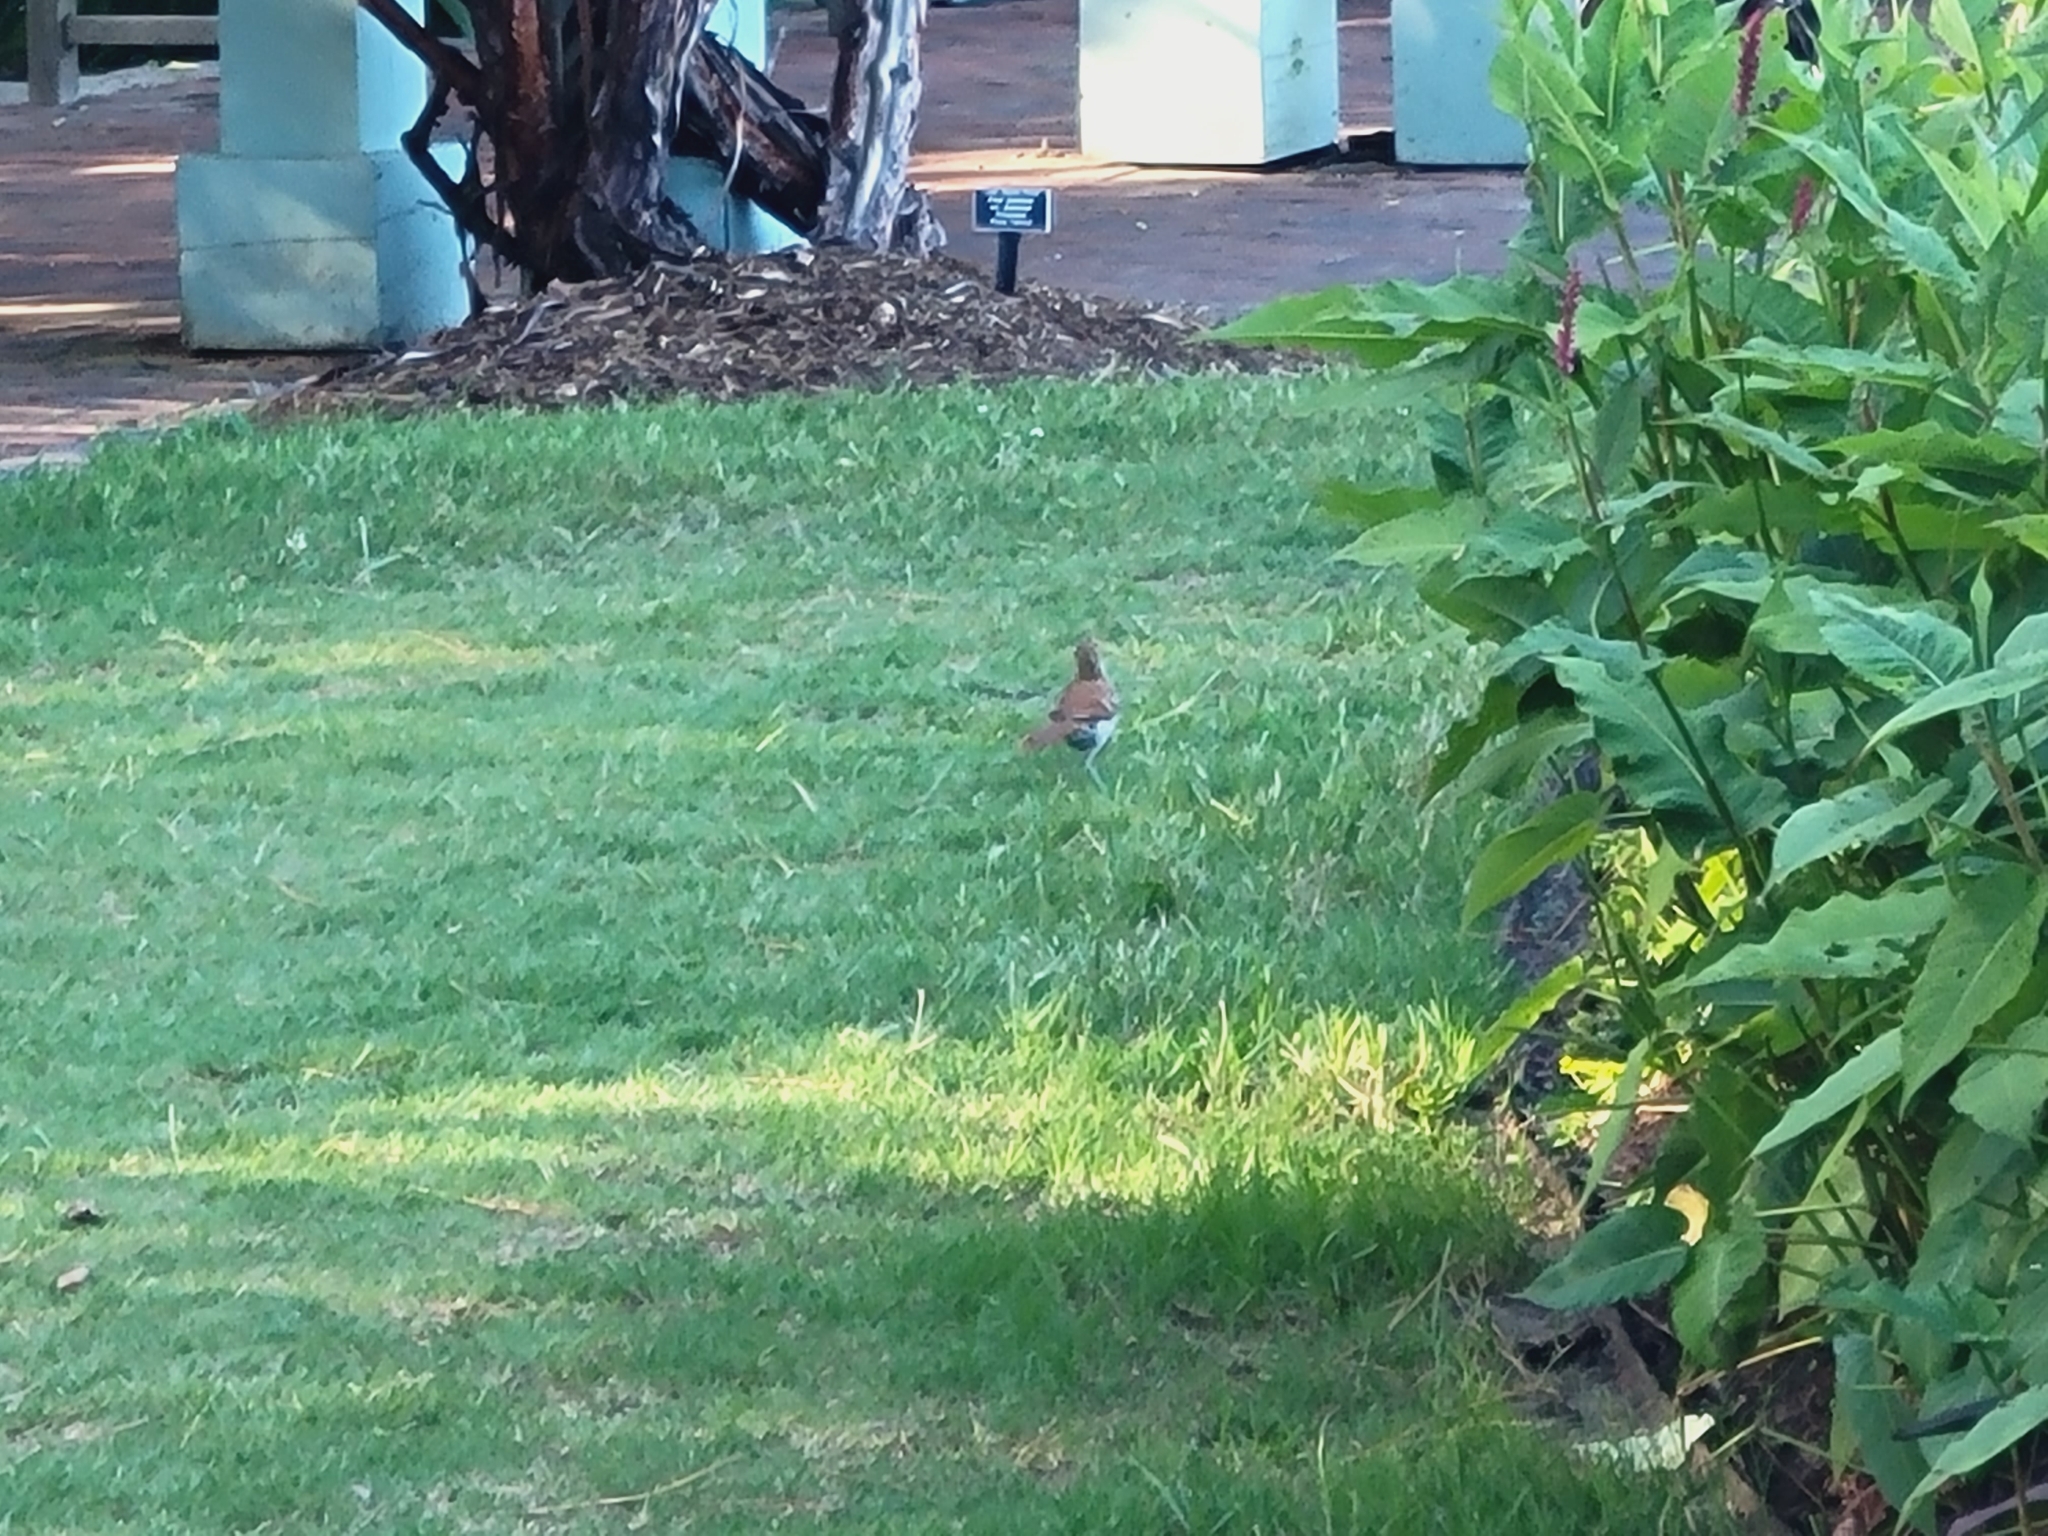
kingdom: Animalia
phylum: Chordata
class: Aves
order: Passeriformes
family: Mimidae
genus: Toxostoma
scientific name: Toxostoma rufum
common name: Brown thrasher
